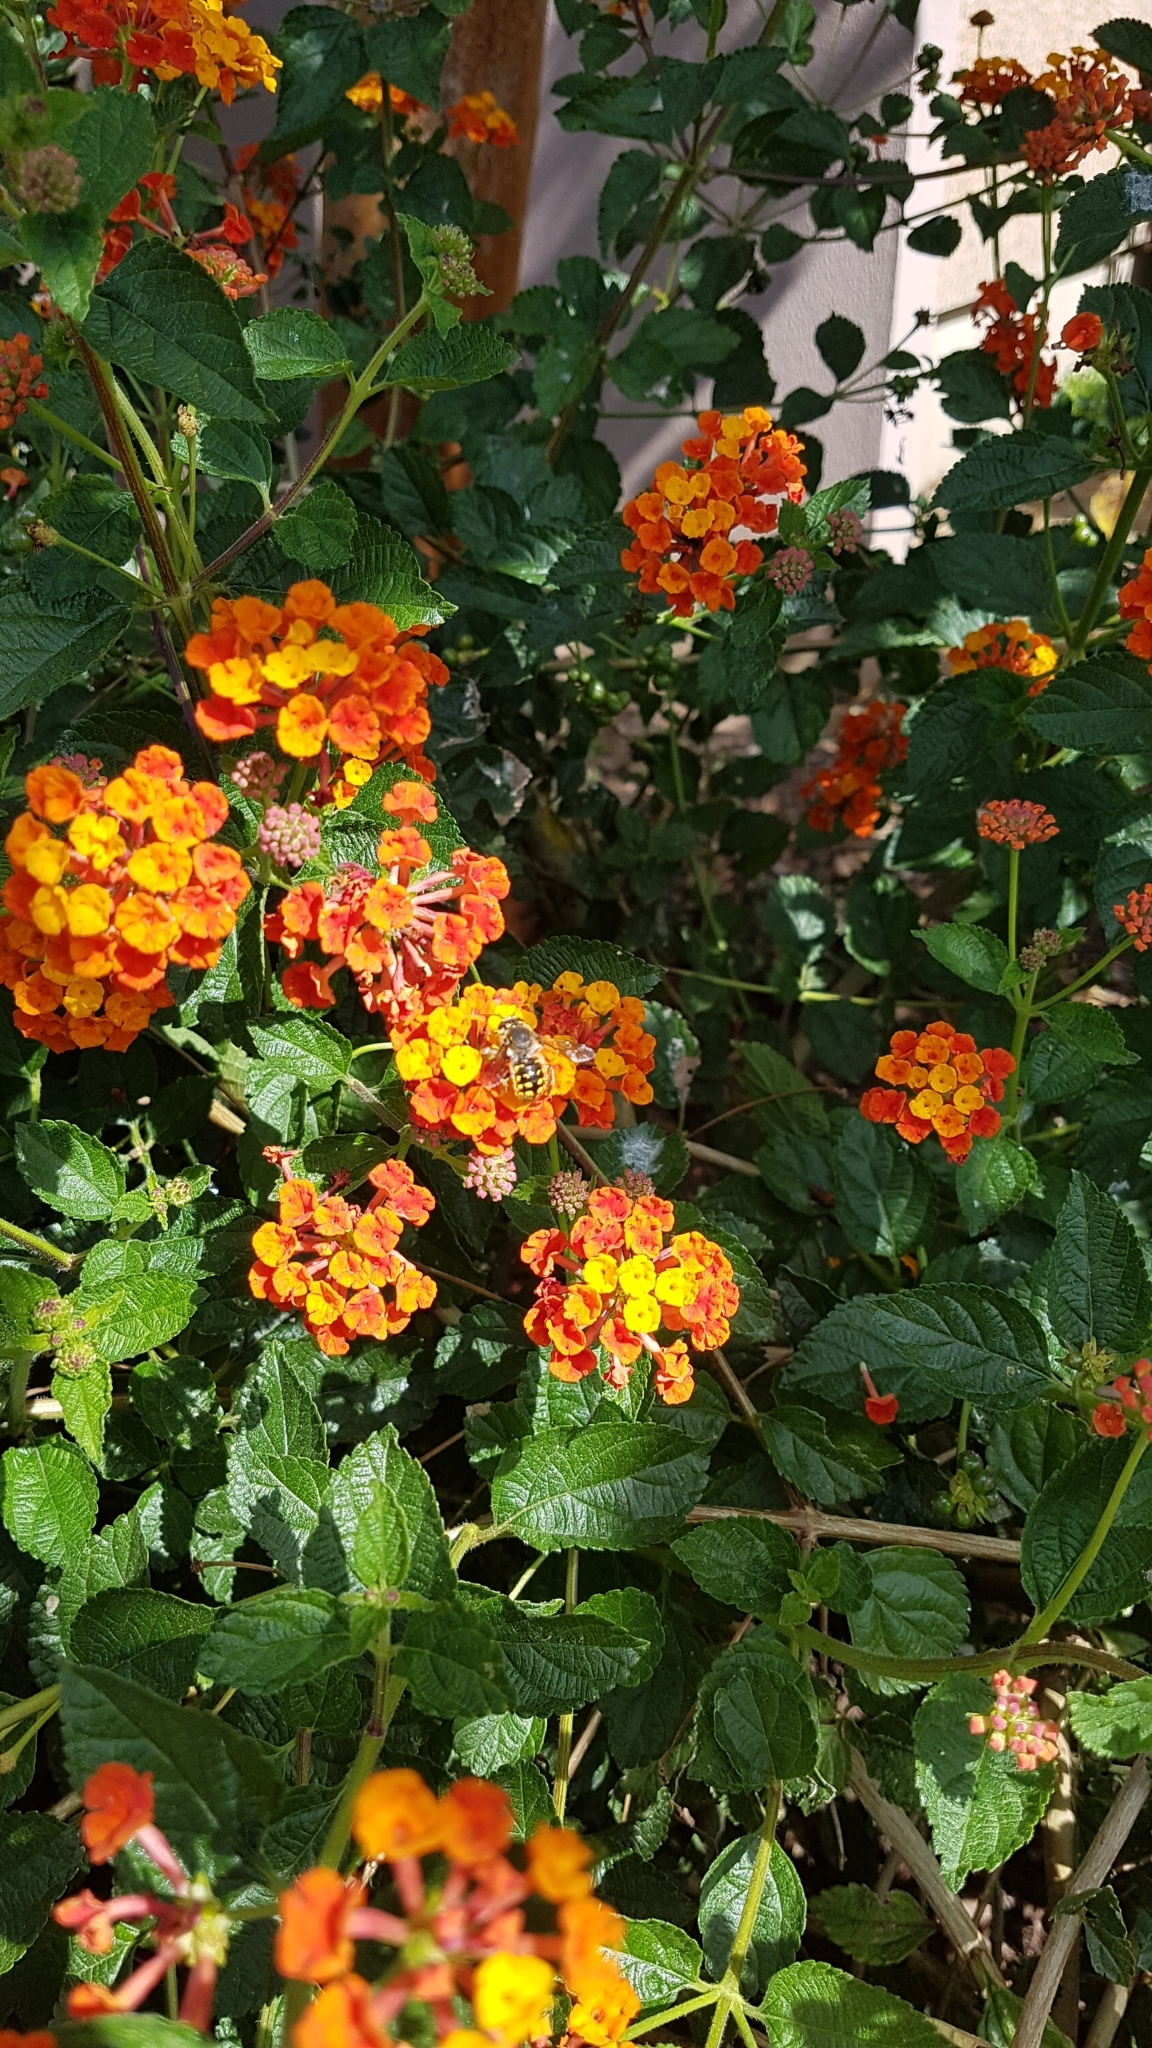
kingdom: Animalia
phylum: Arthropoda
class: Insecta
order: Hymenoptera
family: Megachilidae
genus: Anthidium
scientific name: Anthidium manicatum
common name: Wool carder bee
